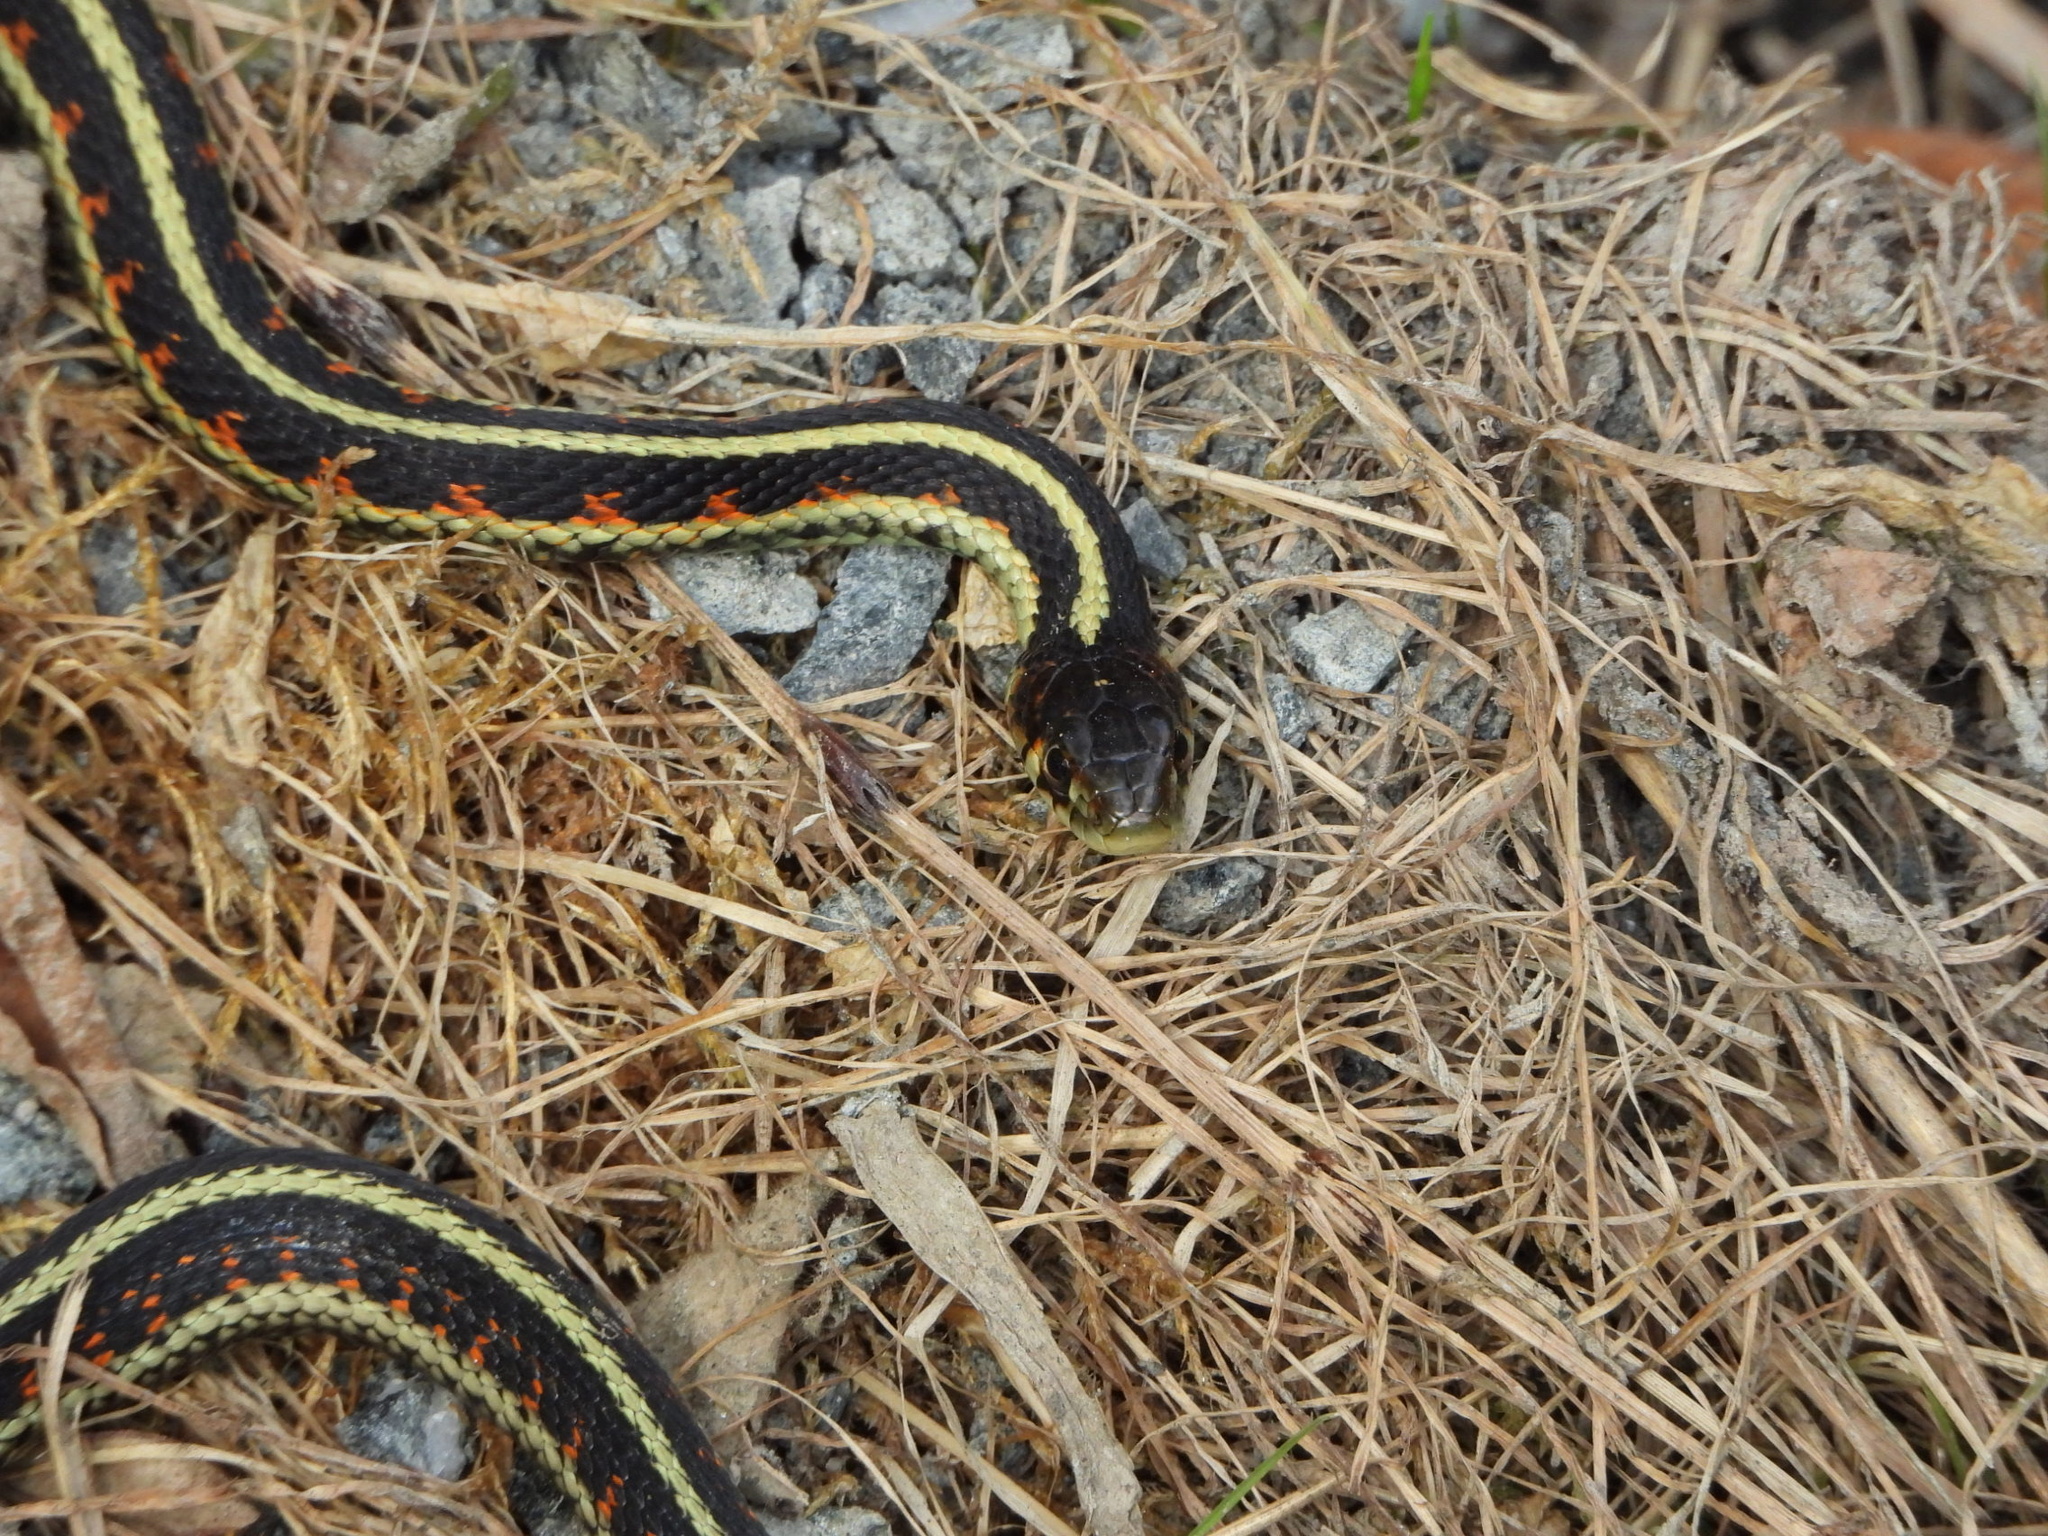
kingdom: Animalia
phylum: Chordata
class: Squamata
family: Colubridae
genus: Thamnophis
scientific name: Thamnophis sirtalis
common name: Common garter snake
